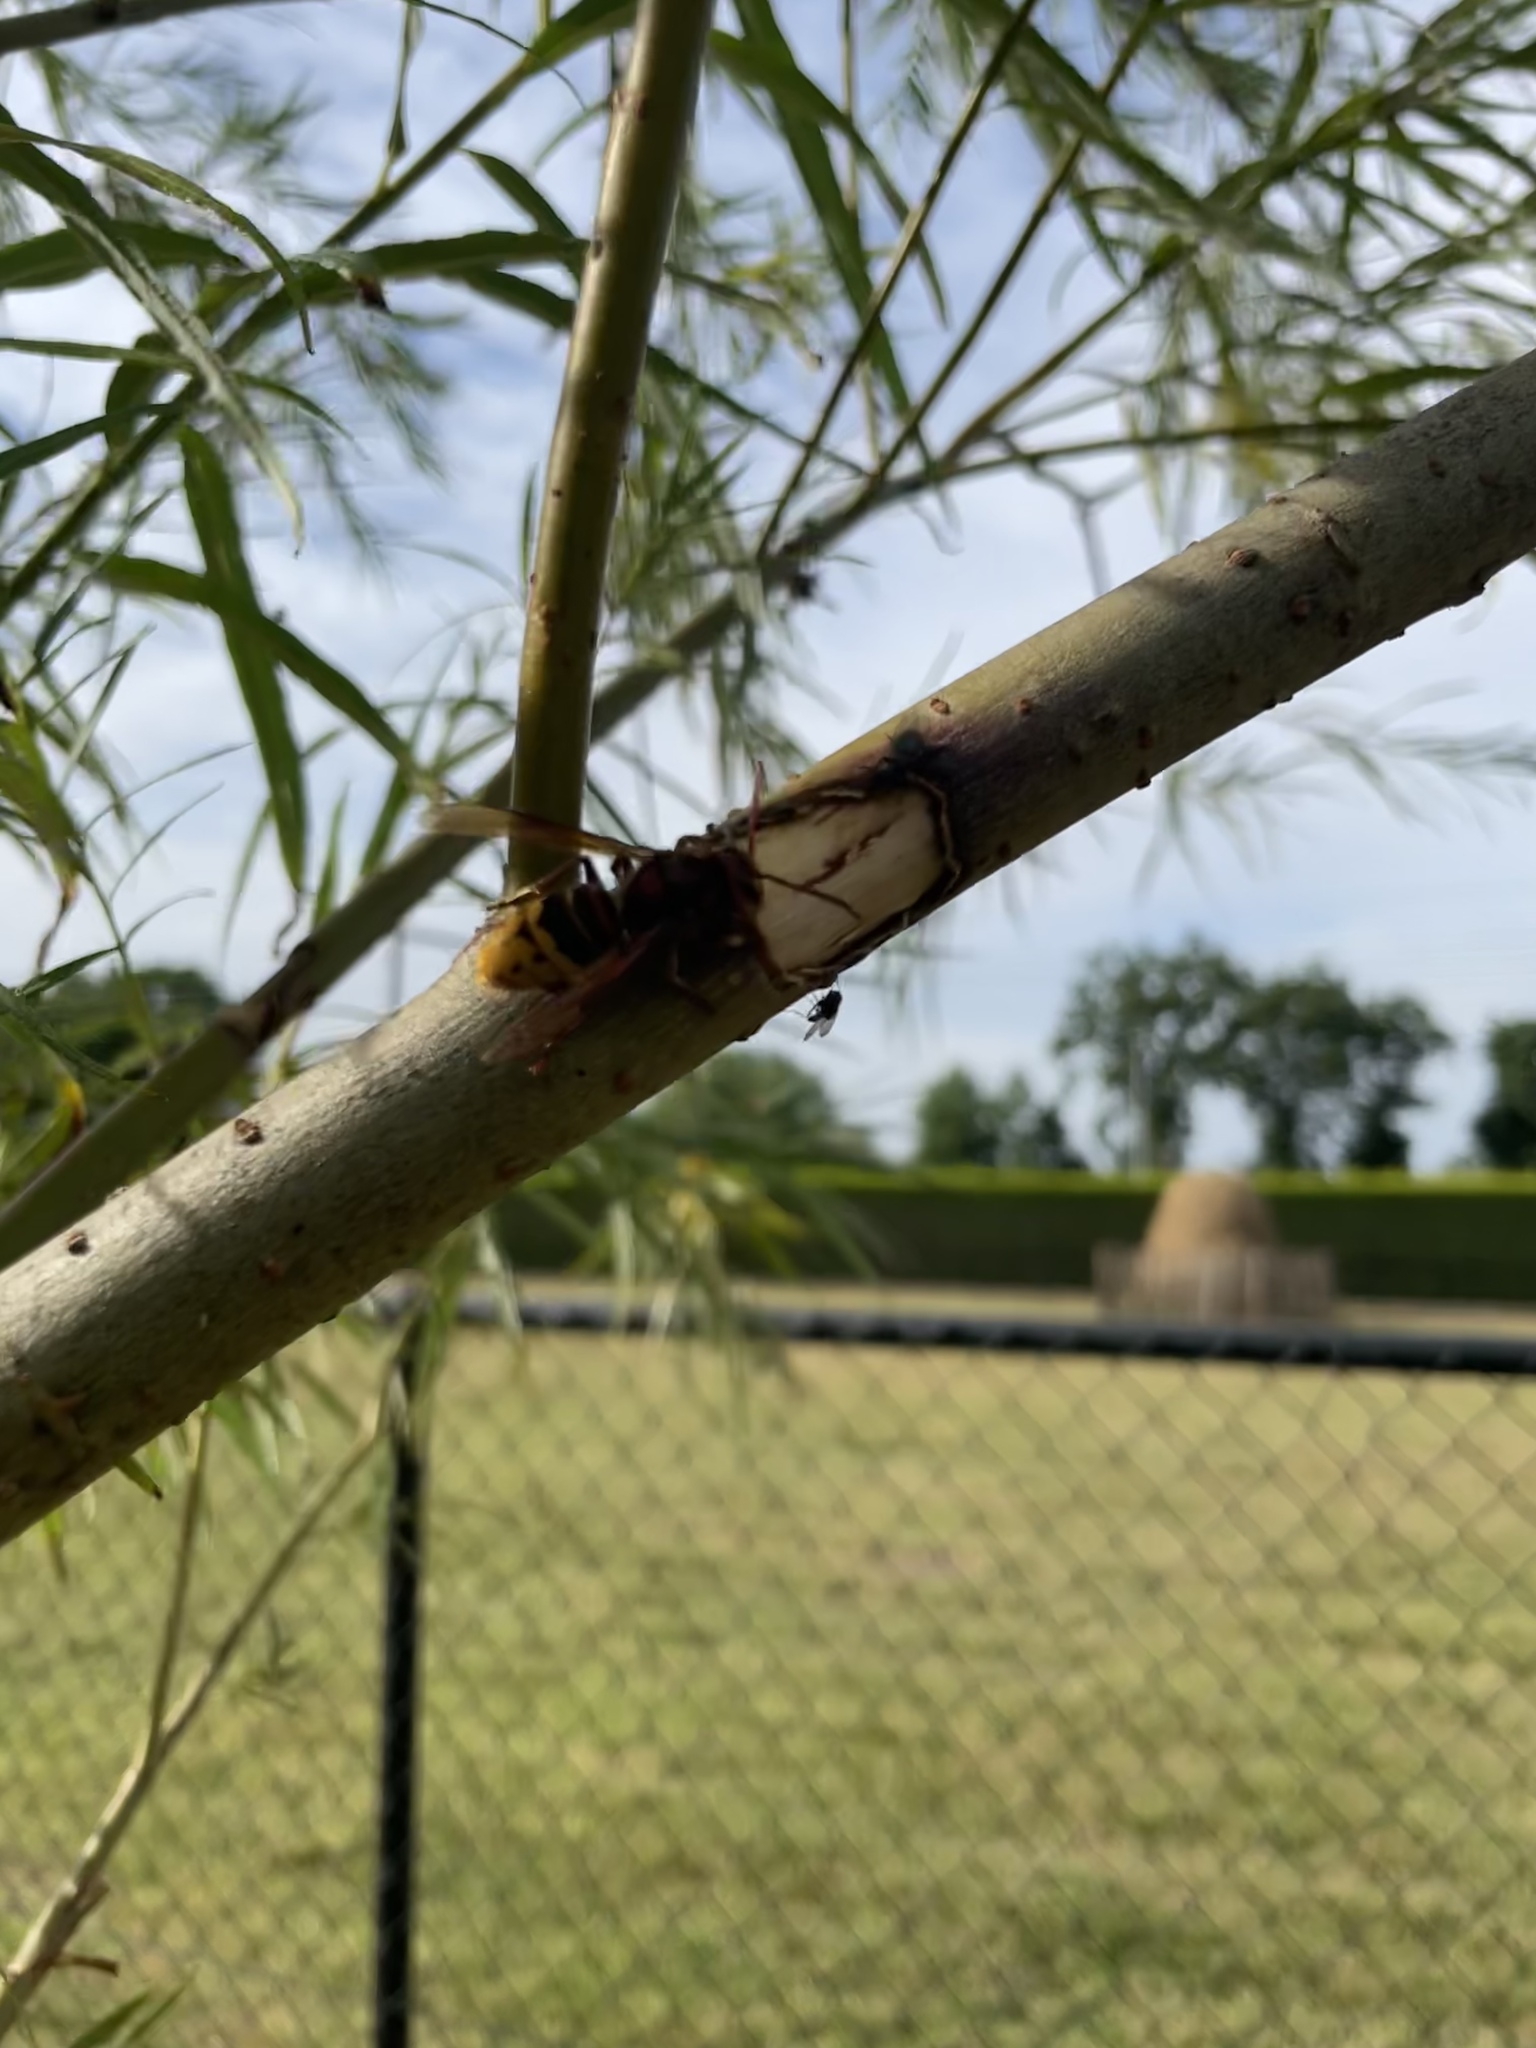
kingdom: Animalia
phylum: Arthropoda
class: Insecta
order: Hymenoptera
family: Vespidae
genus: Vespa
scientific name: Vespa crabro
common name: Hornet
